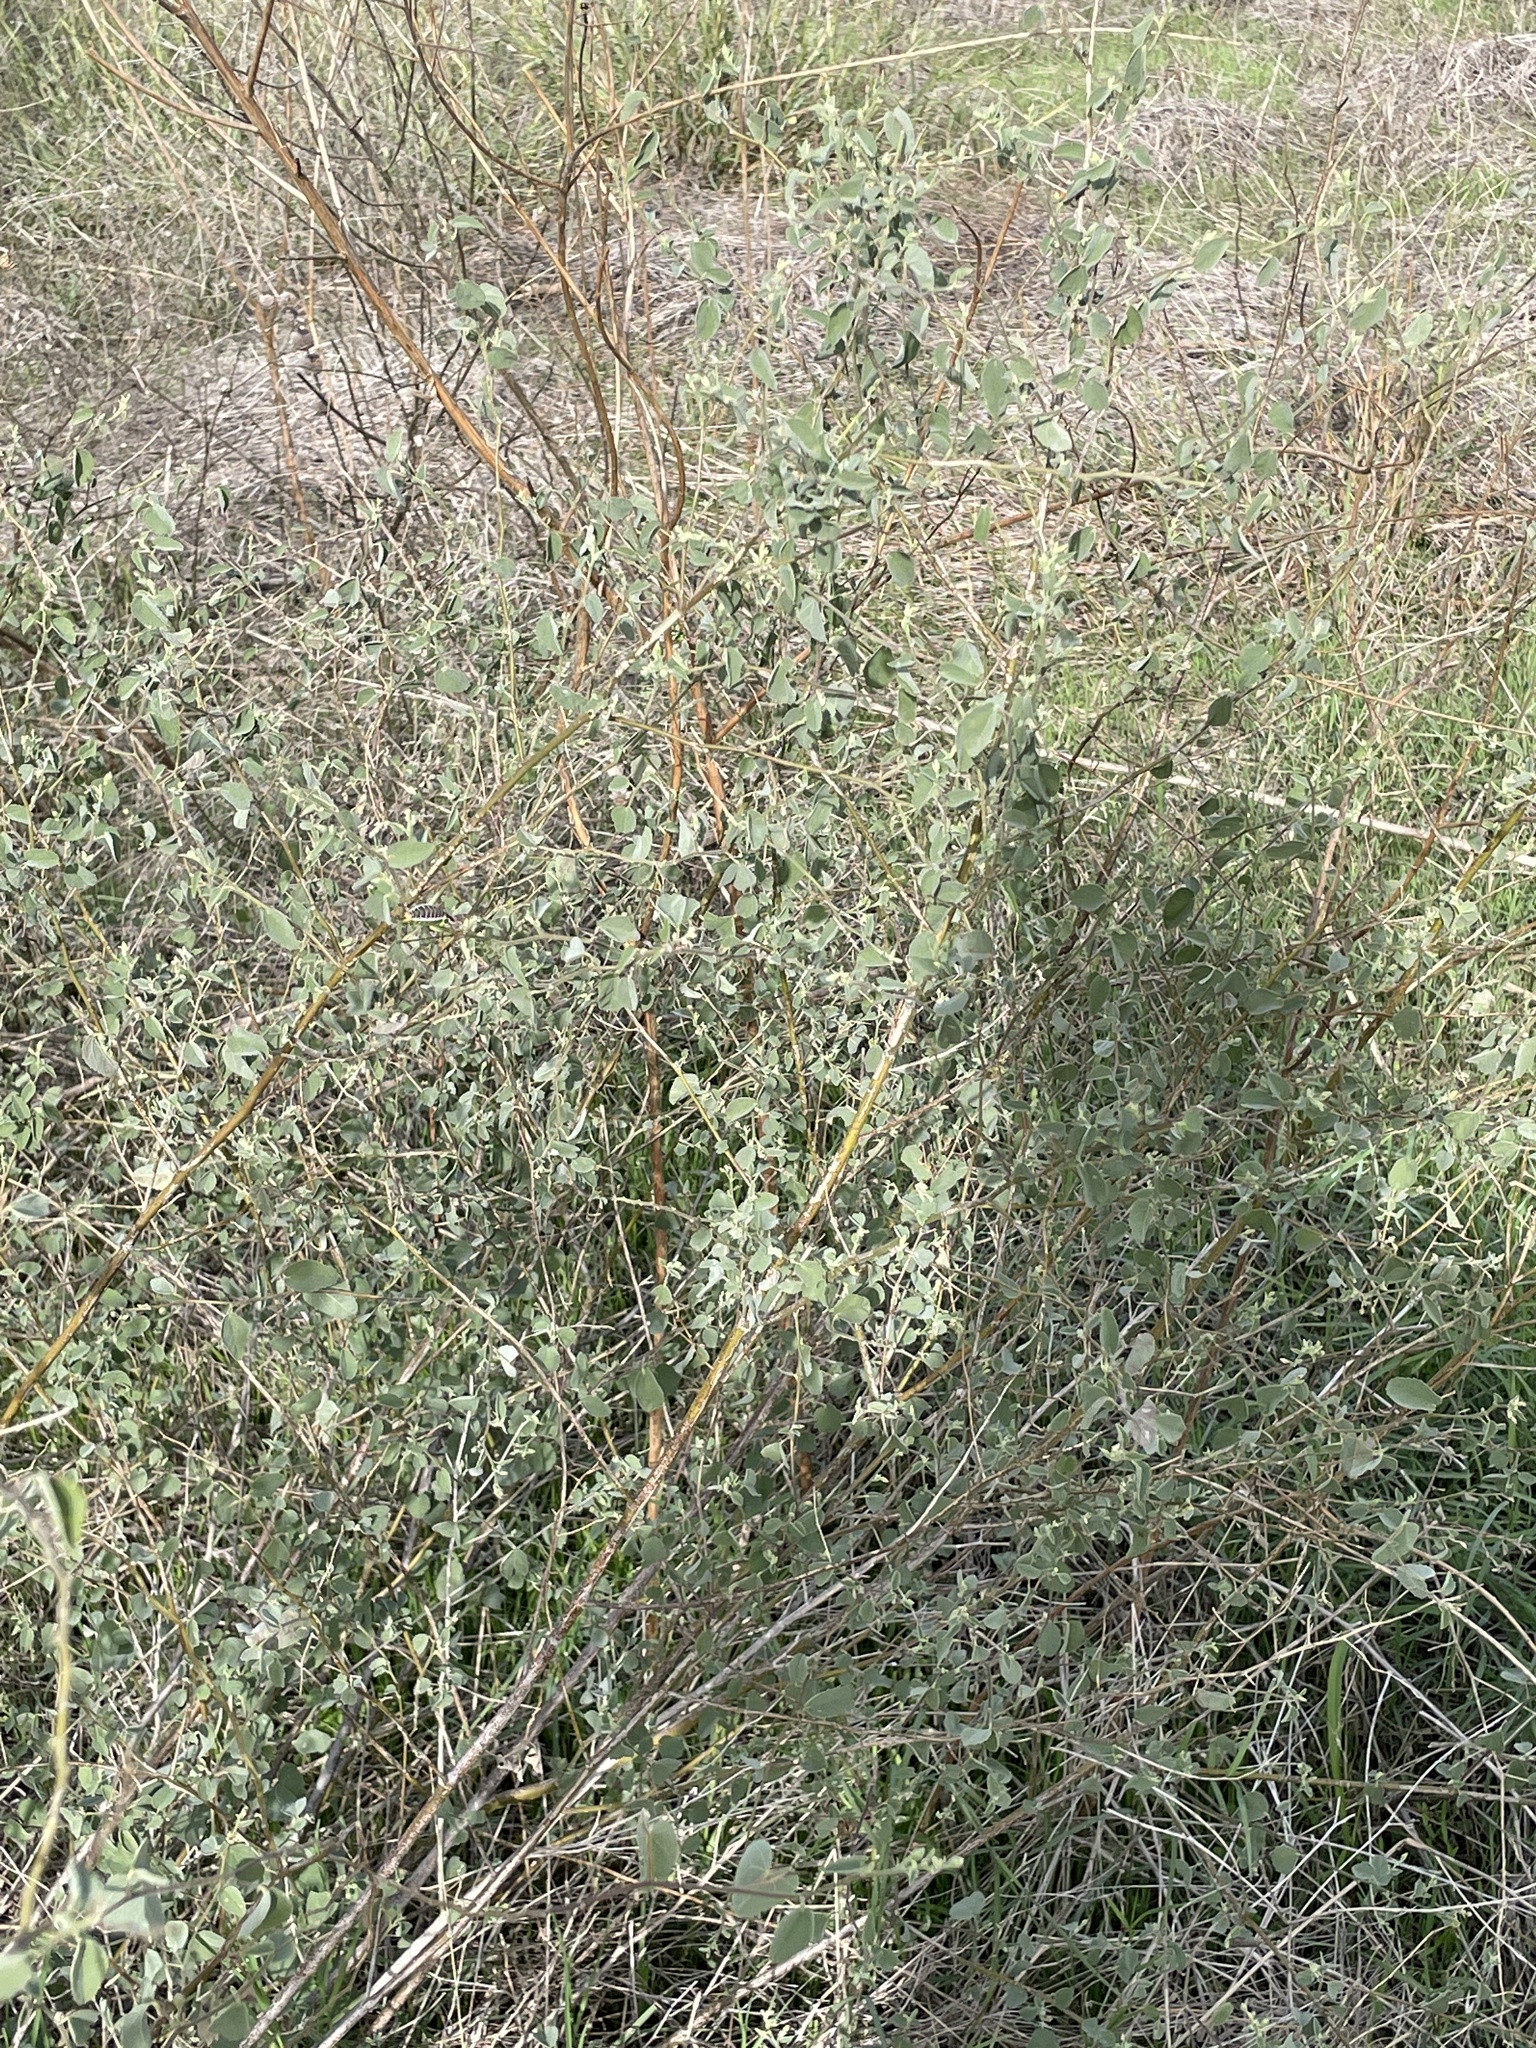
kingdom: Plantae
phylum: Tracheophyta
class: Magnoliopsida
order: Malvales
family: Malvaceae
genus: Abutilon
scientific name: Abutilon fruticosum
